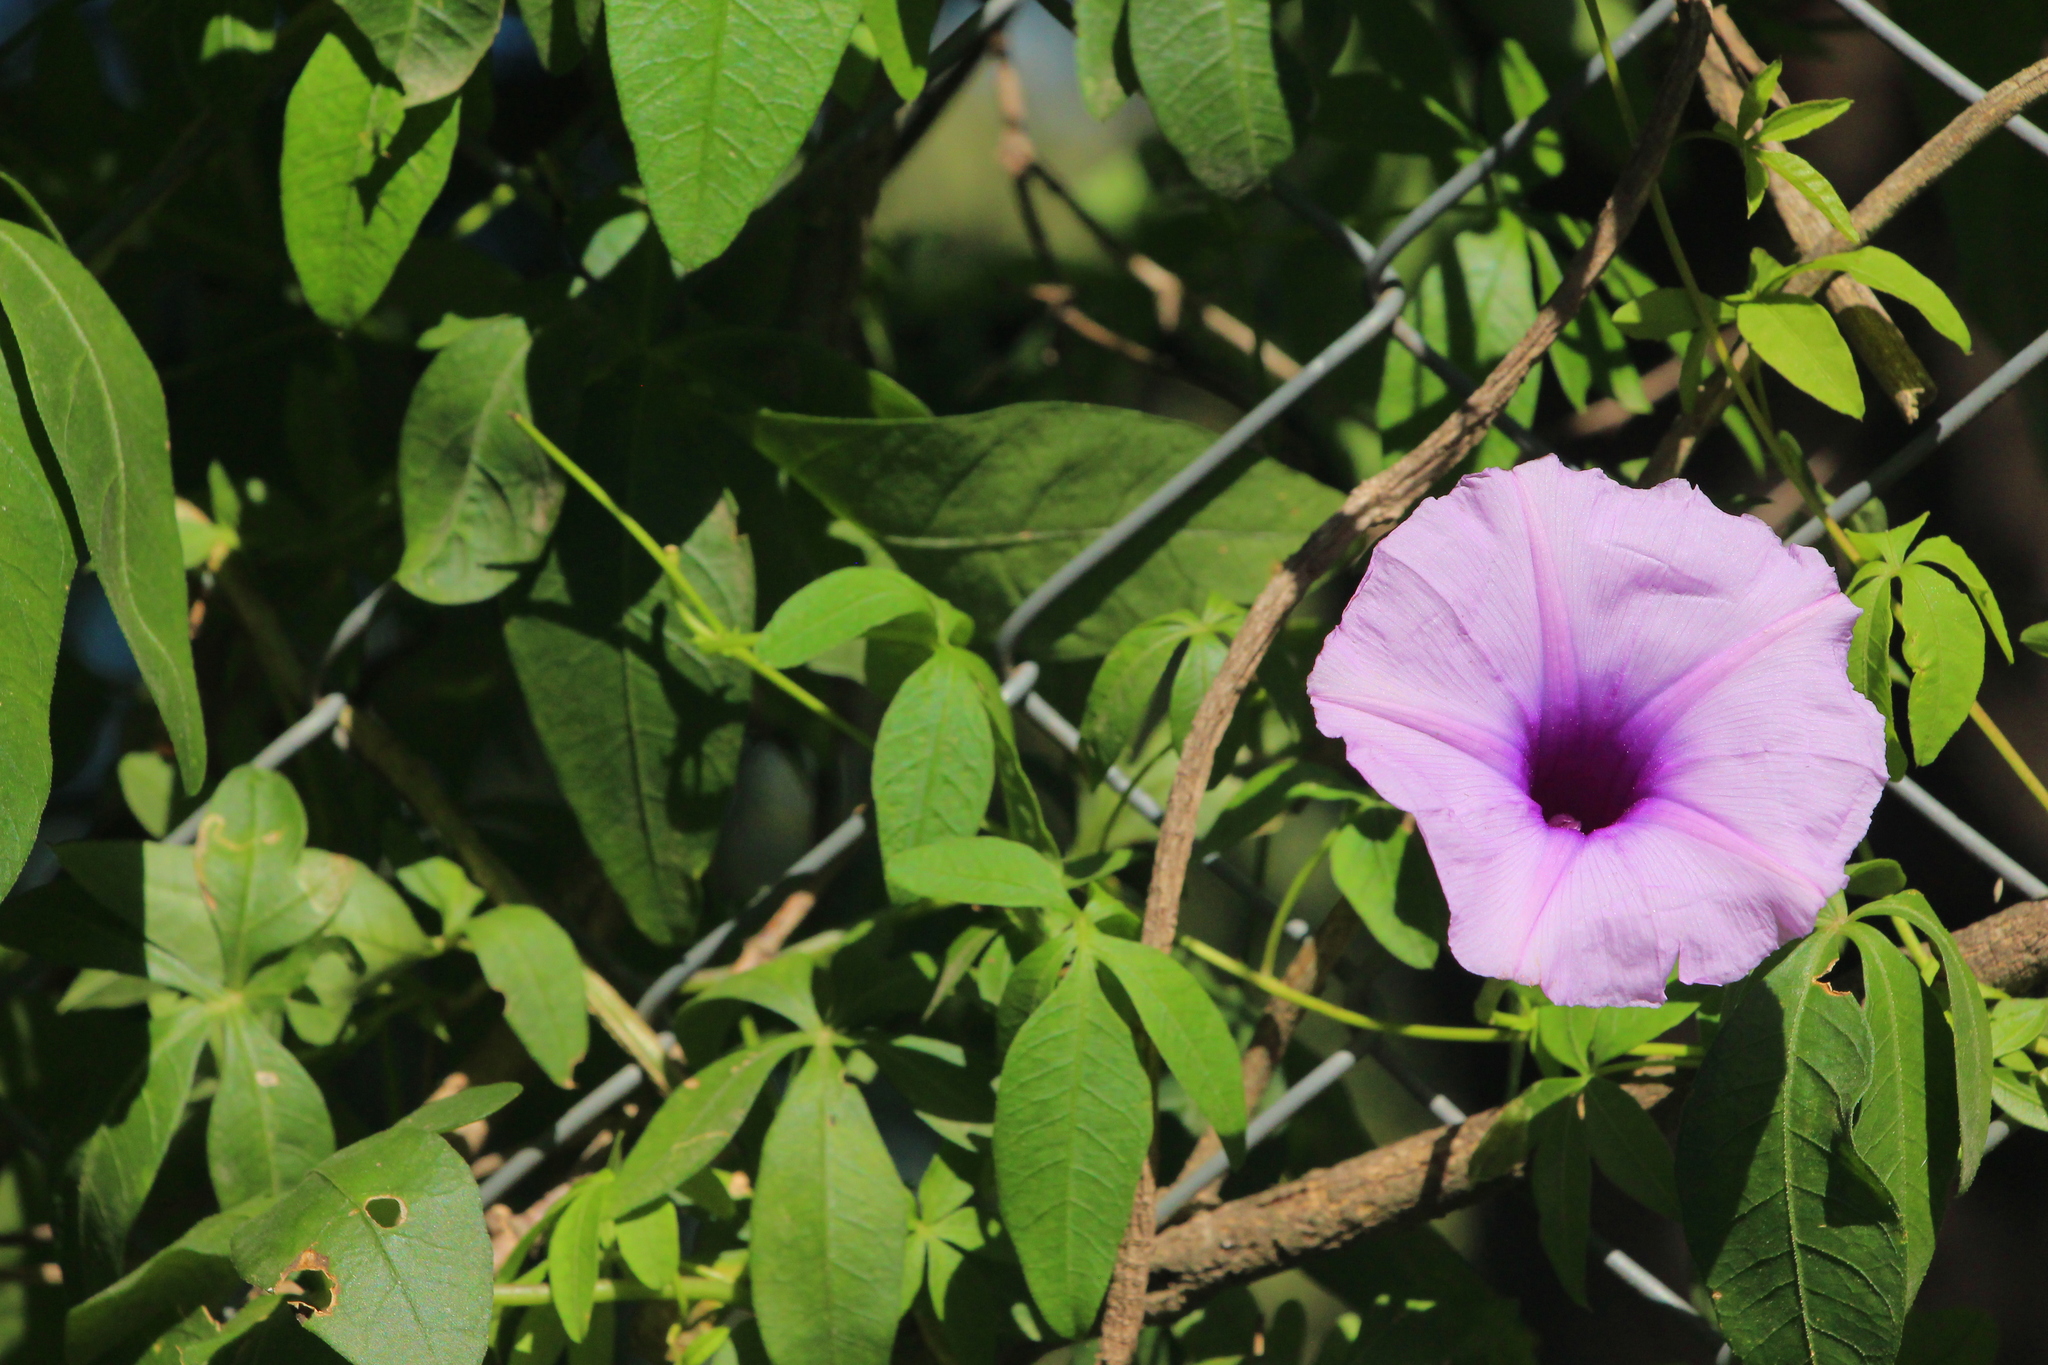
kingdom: Plantae
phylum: Tracheophyta
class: Magnoliopsida
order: Solanales
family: Convolvulaceae
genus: Ipomoea
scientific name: Ipomoea cairica
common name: Mile a minute vine
